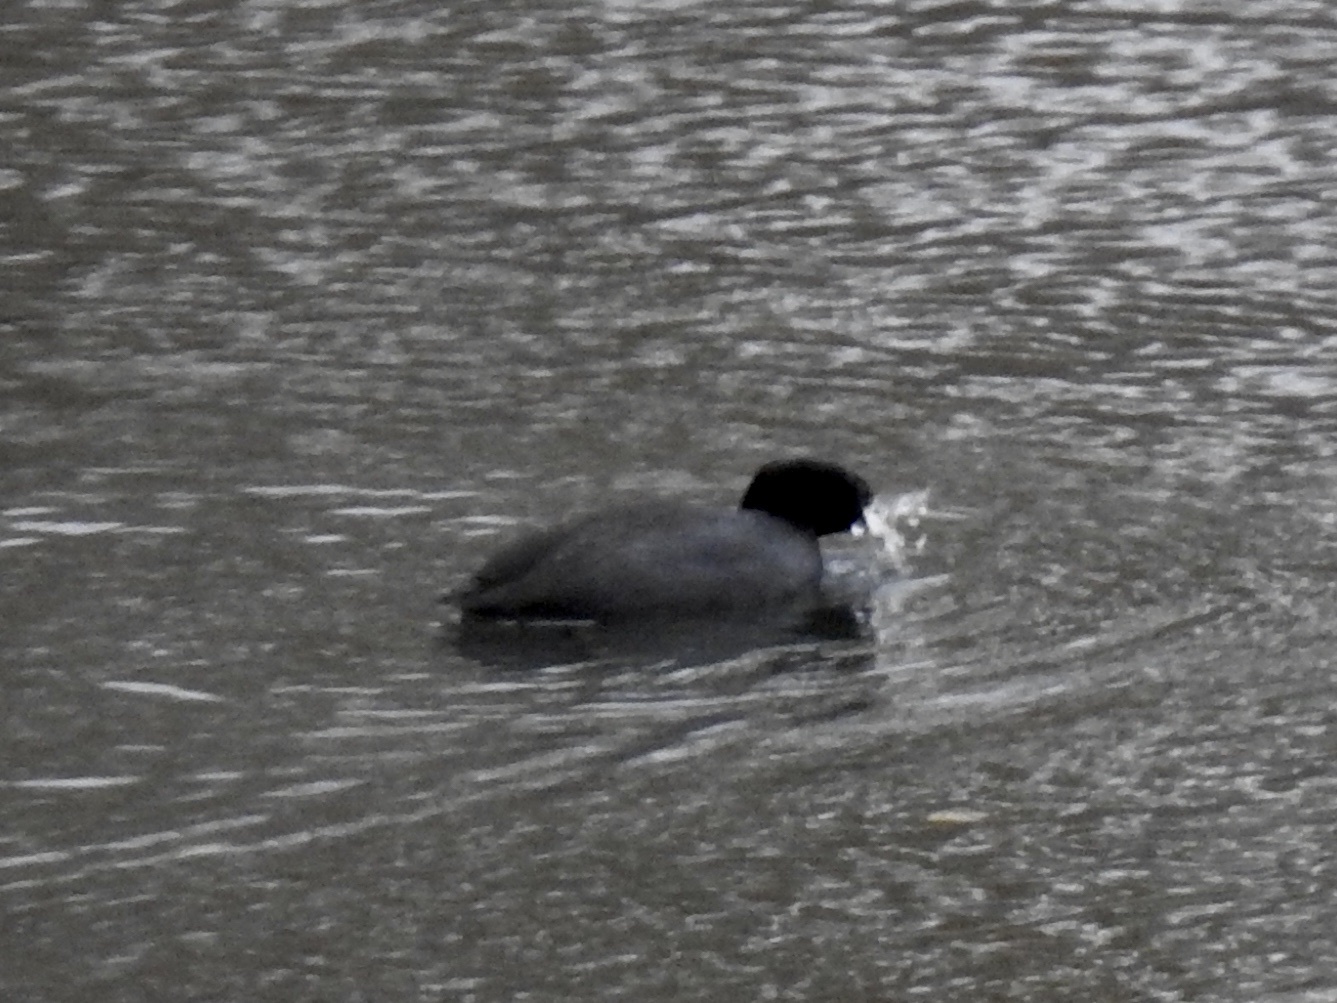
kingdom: Animalia
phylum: Chordata
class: Aves
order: Gruiformes
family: Rallidae
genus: Fulica
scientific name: Fulica americana
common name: American coot
